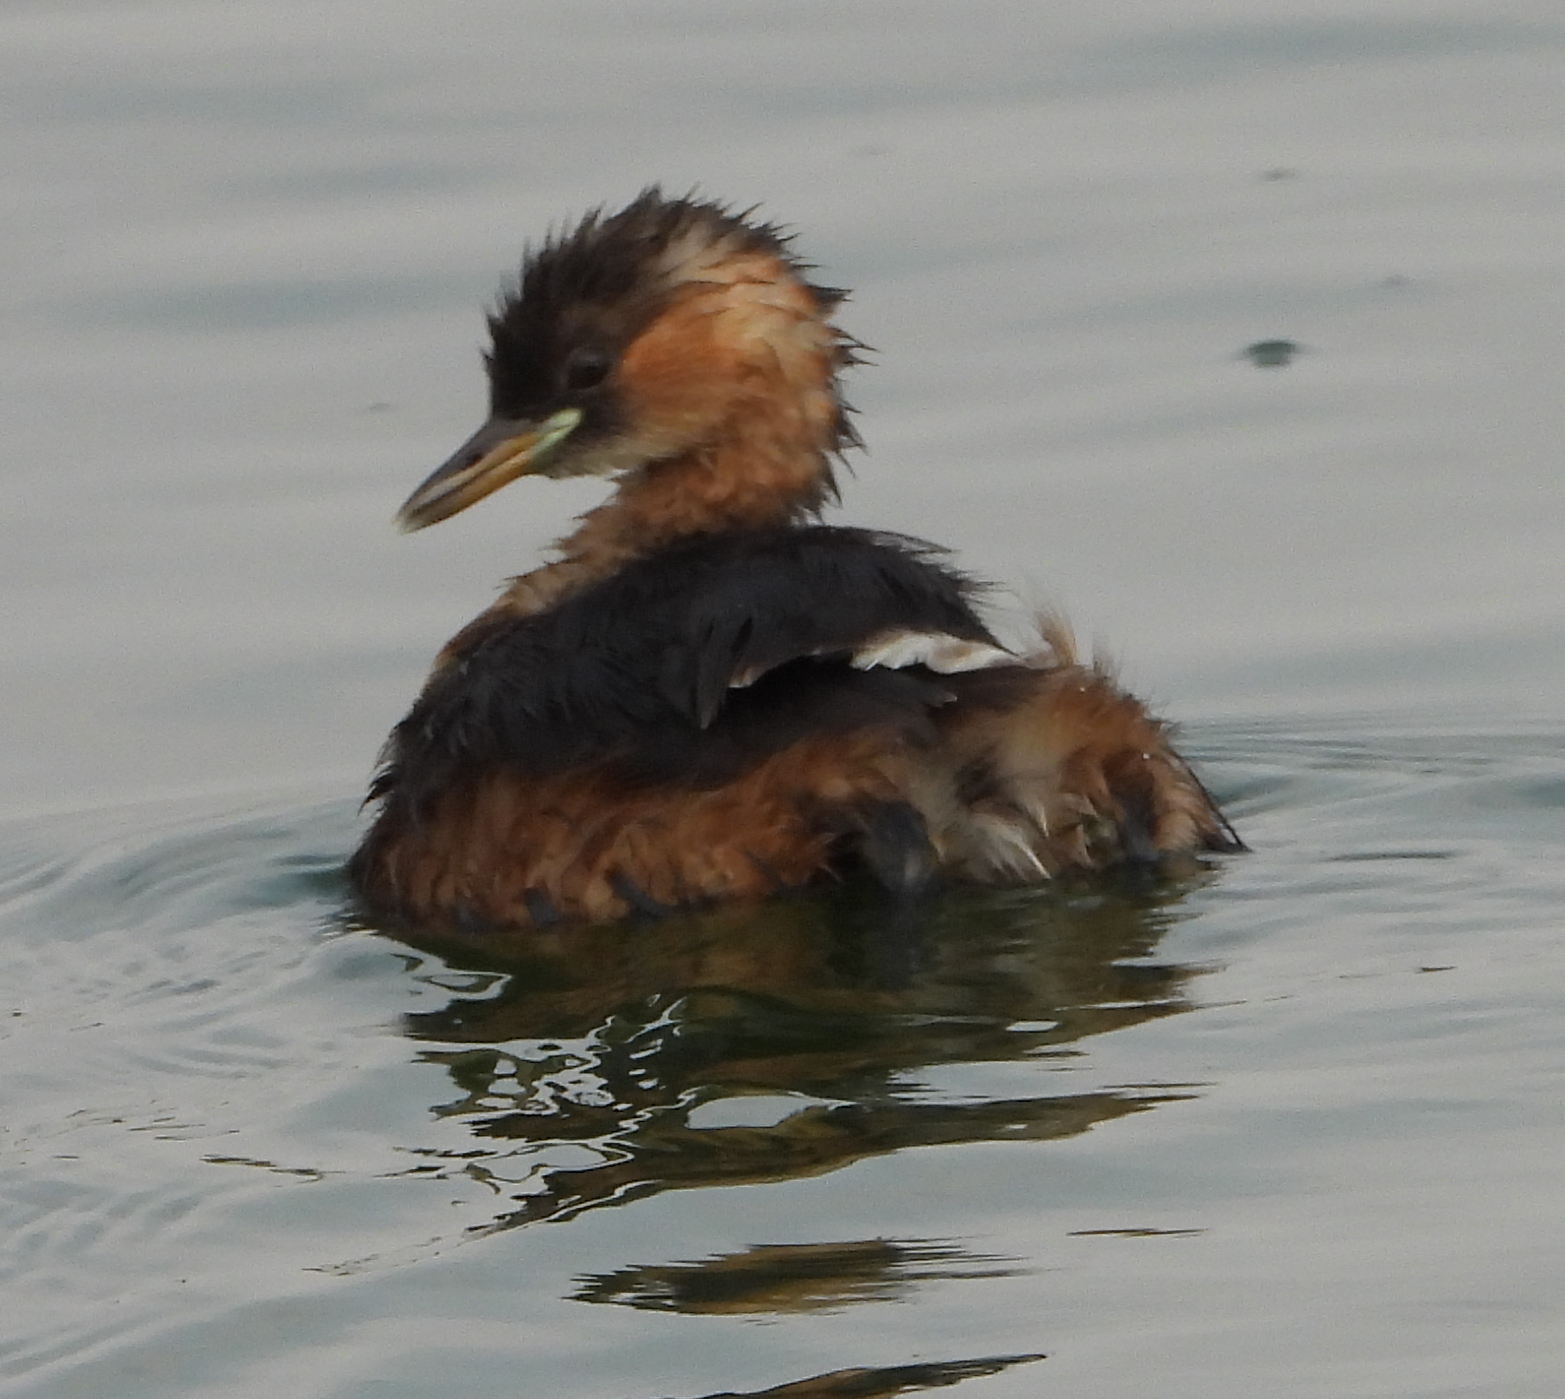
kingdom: Animalia
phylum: Chordata
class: Aves
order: Podicipediformes
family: Podicipedidae
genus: Tachybaptus
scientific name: Tachybaptus ruficollis
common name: Little grebe
